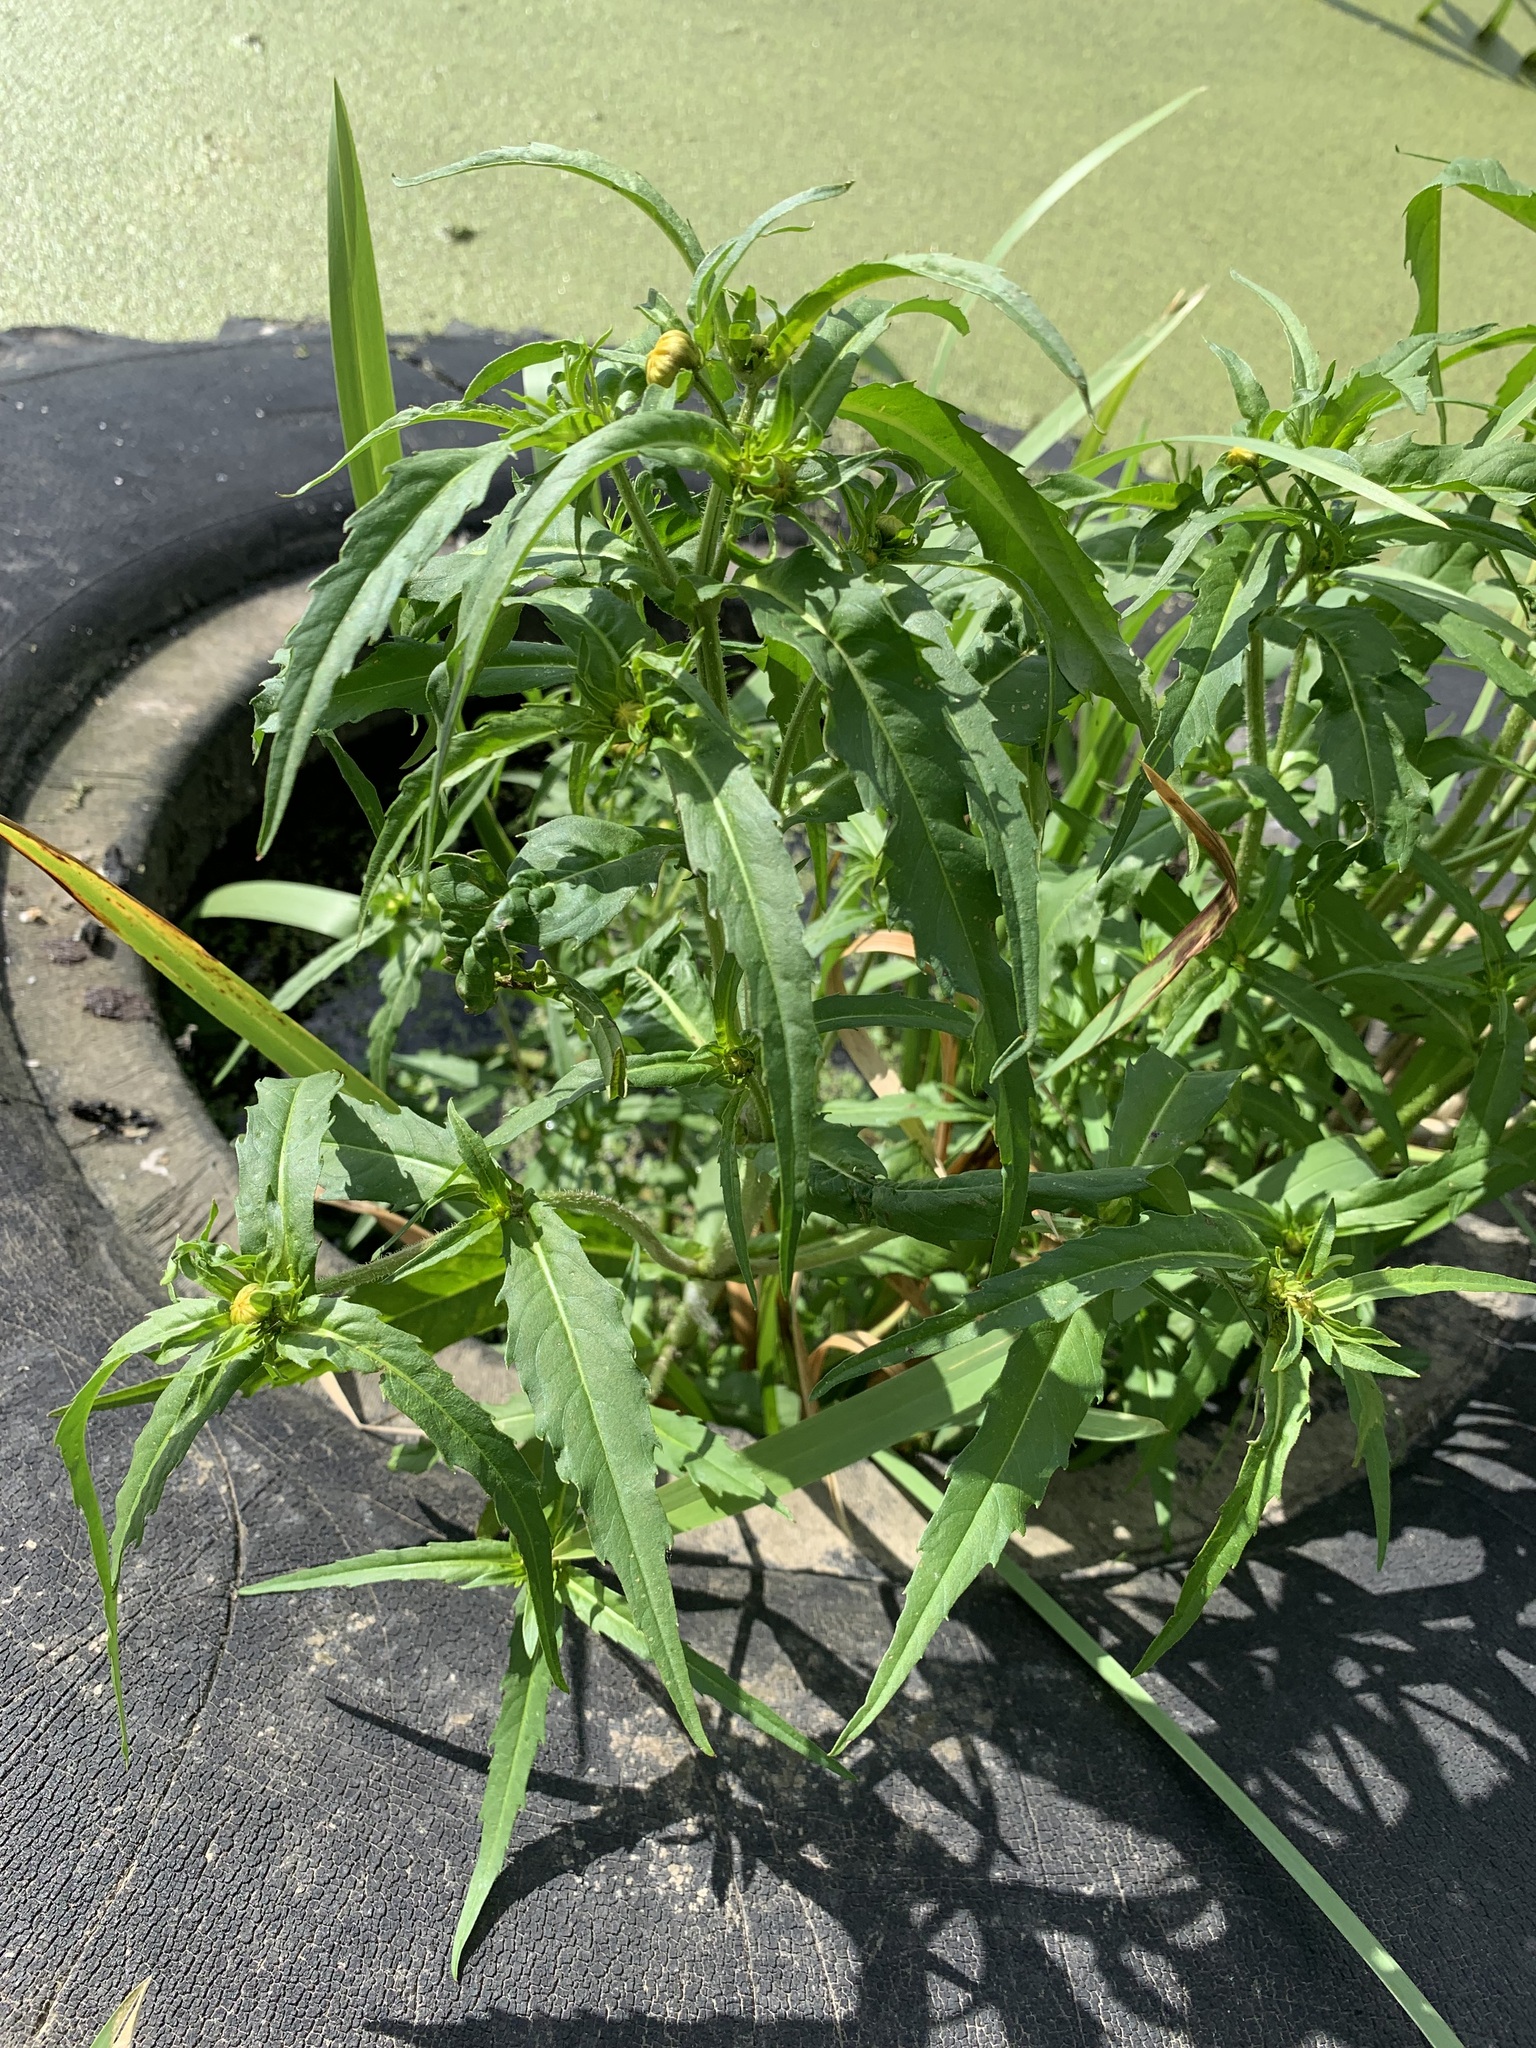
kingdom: Plantae
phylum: Tracheophyta
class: Magnoliopsida
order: Asterales
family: Asteraceae
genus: Bidens
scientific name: Bidens cernua
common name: Nodding bur-marigold
